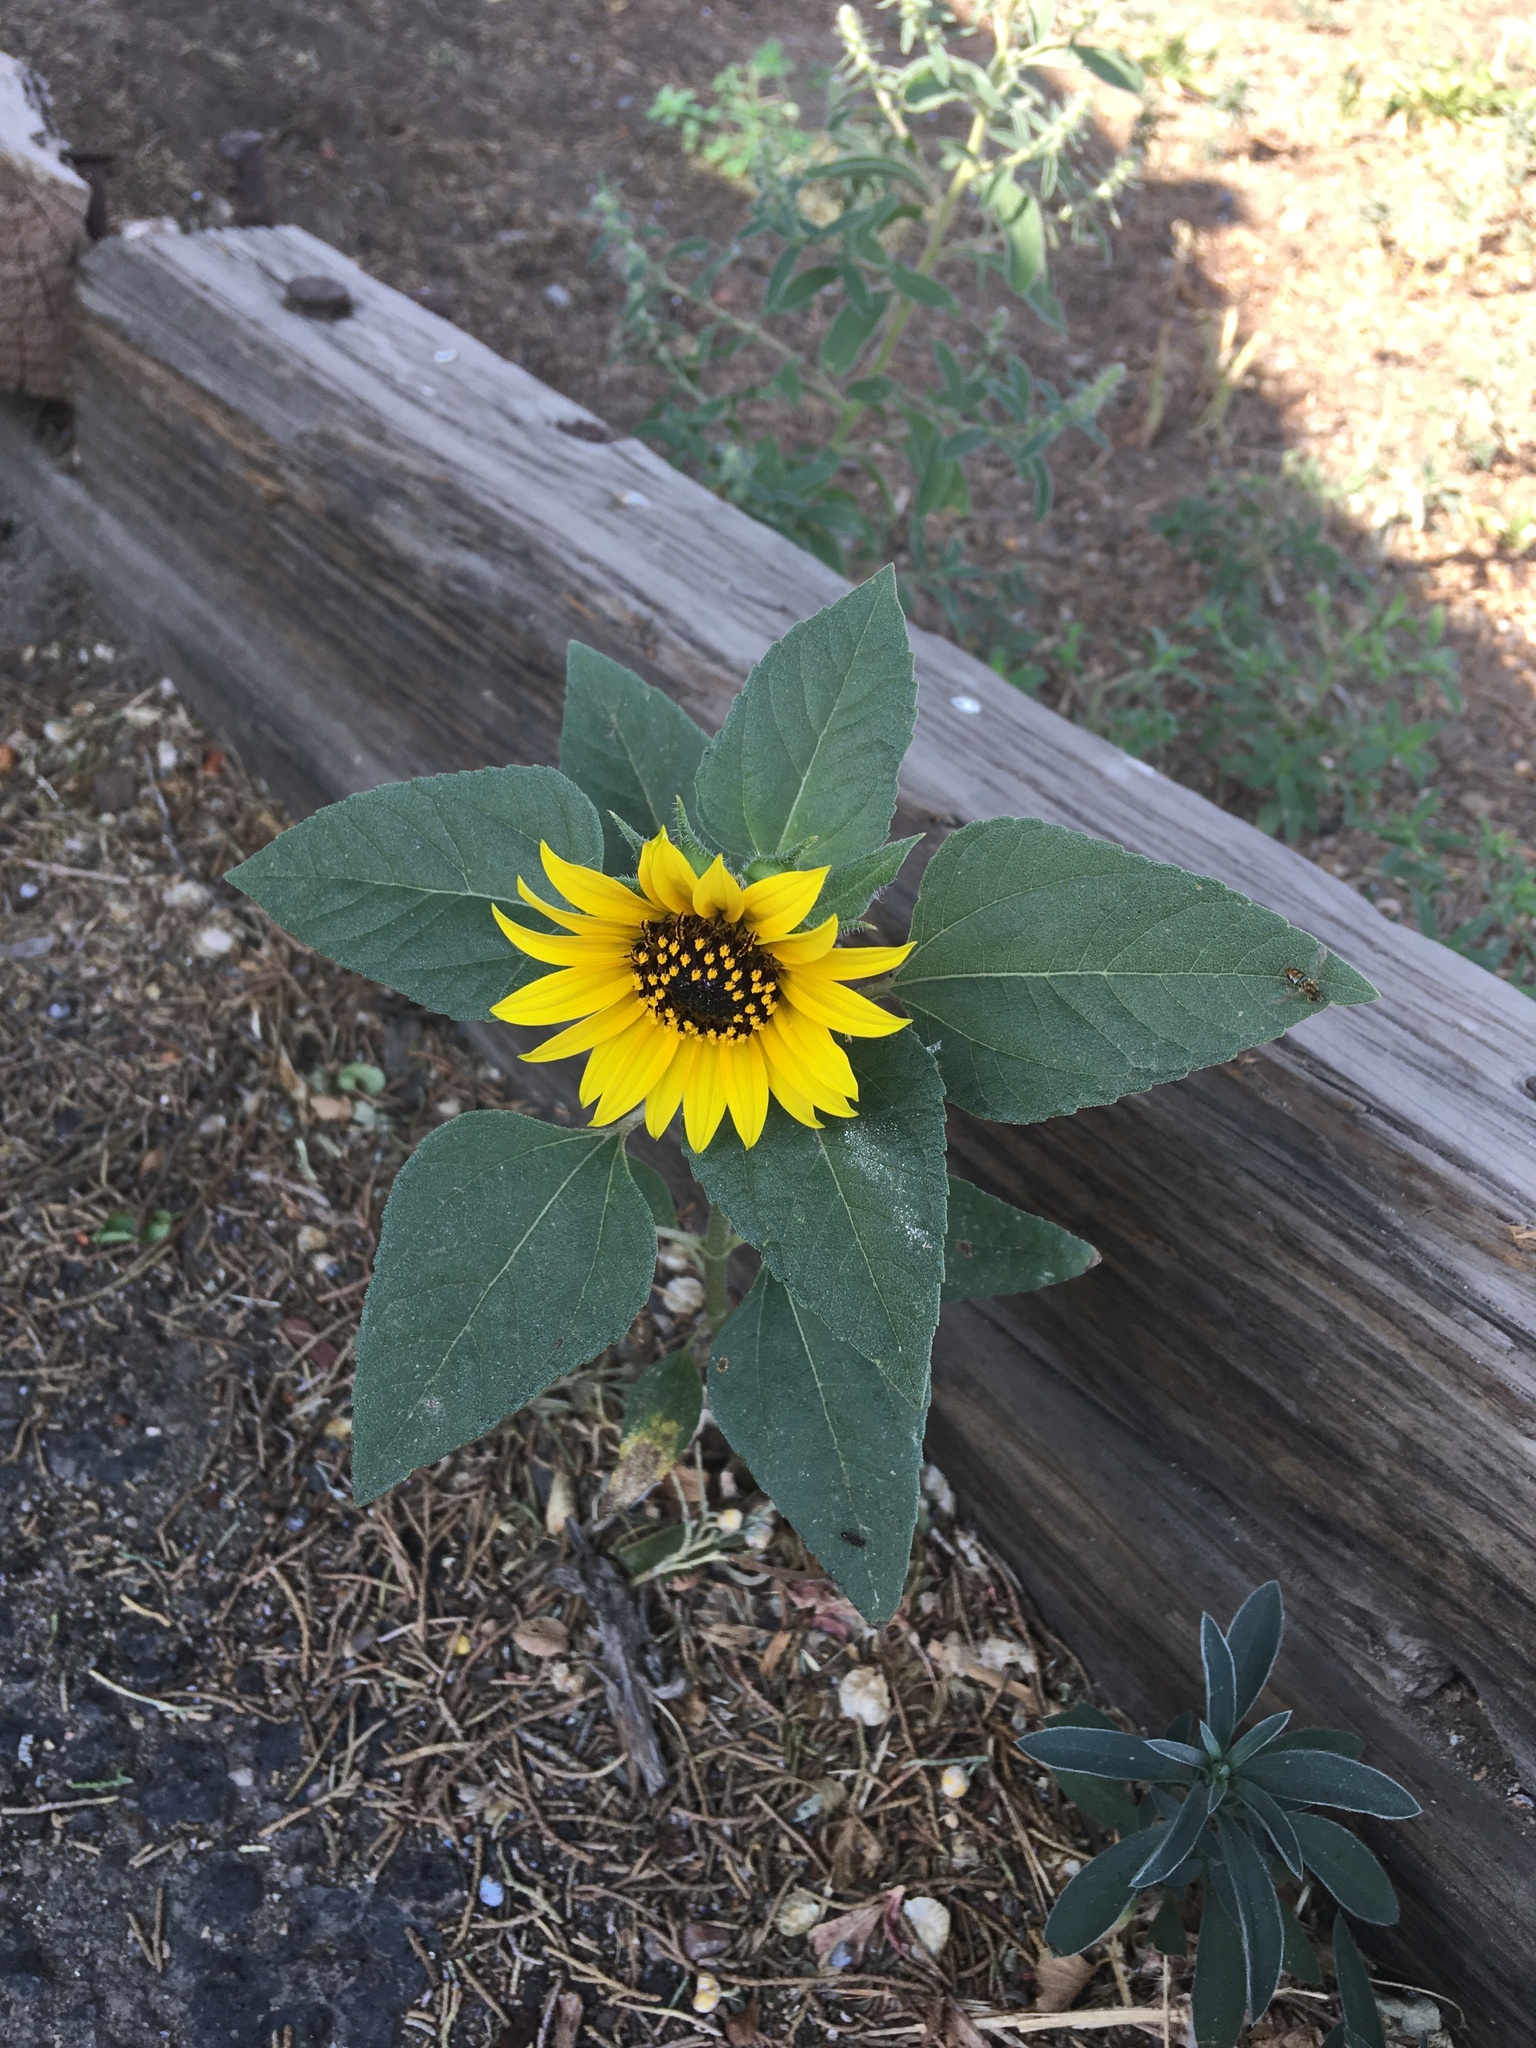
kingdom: Plantae
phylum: Tracheophyta
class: Magnoliopsida
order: Asterales
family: Asteraceae
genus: Helianthus
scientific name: Helianthus annuus
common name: Sunflower
